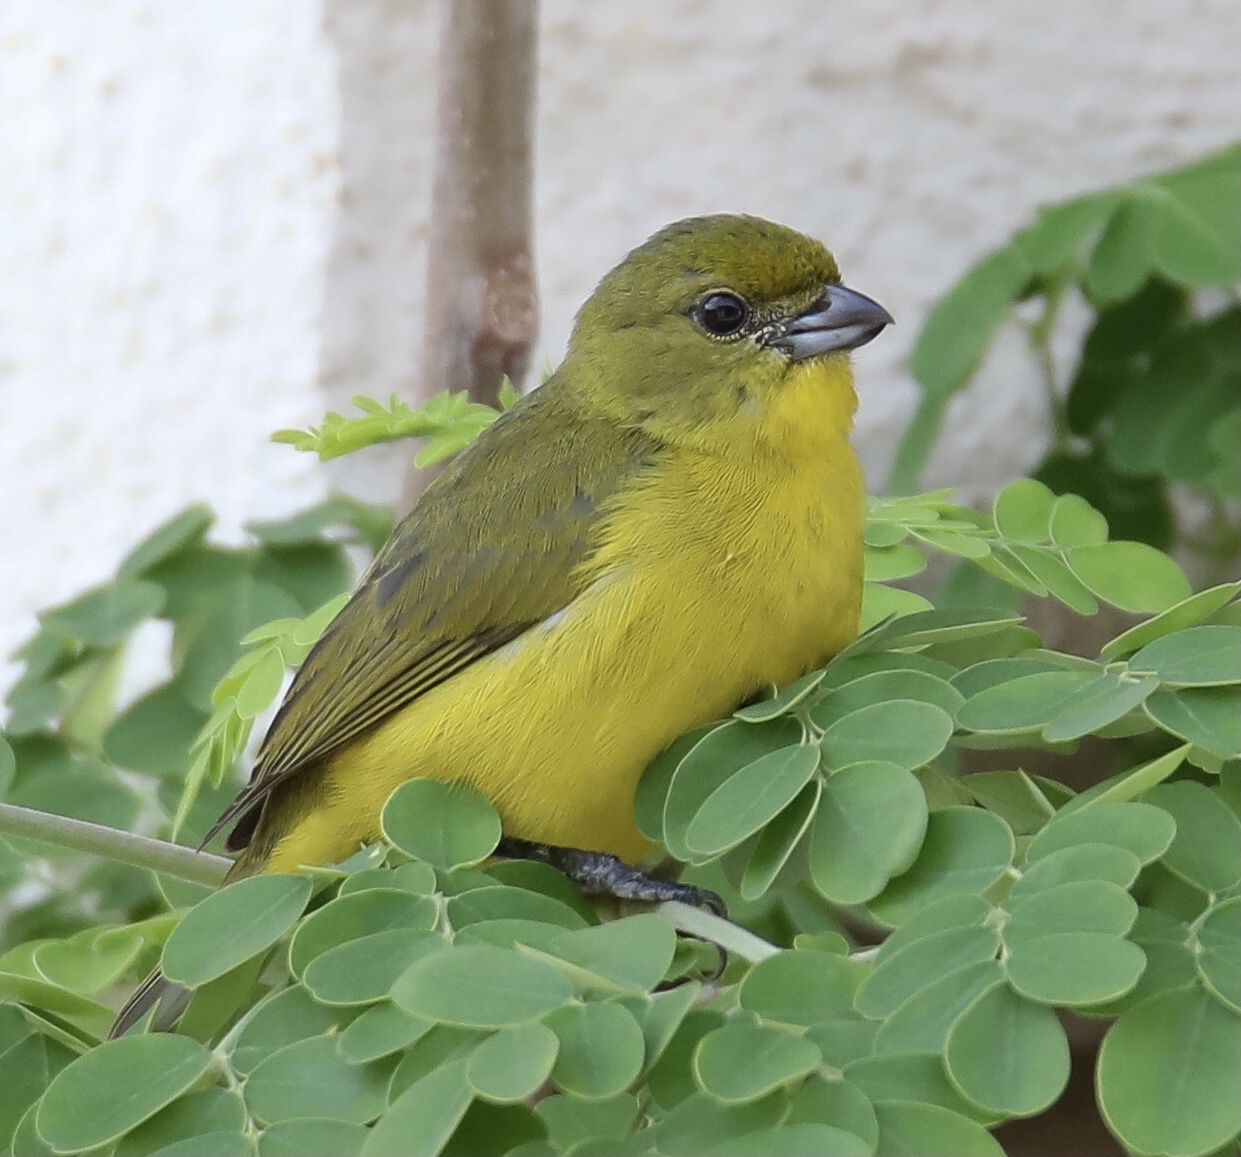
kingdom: Animalia
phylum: Chordata
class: Aves
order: Passeriformes
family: Fringillidae
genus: Euphonia
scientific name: Euphonia laniirostris
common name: Thick-billed euphonia
